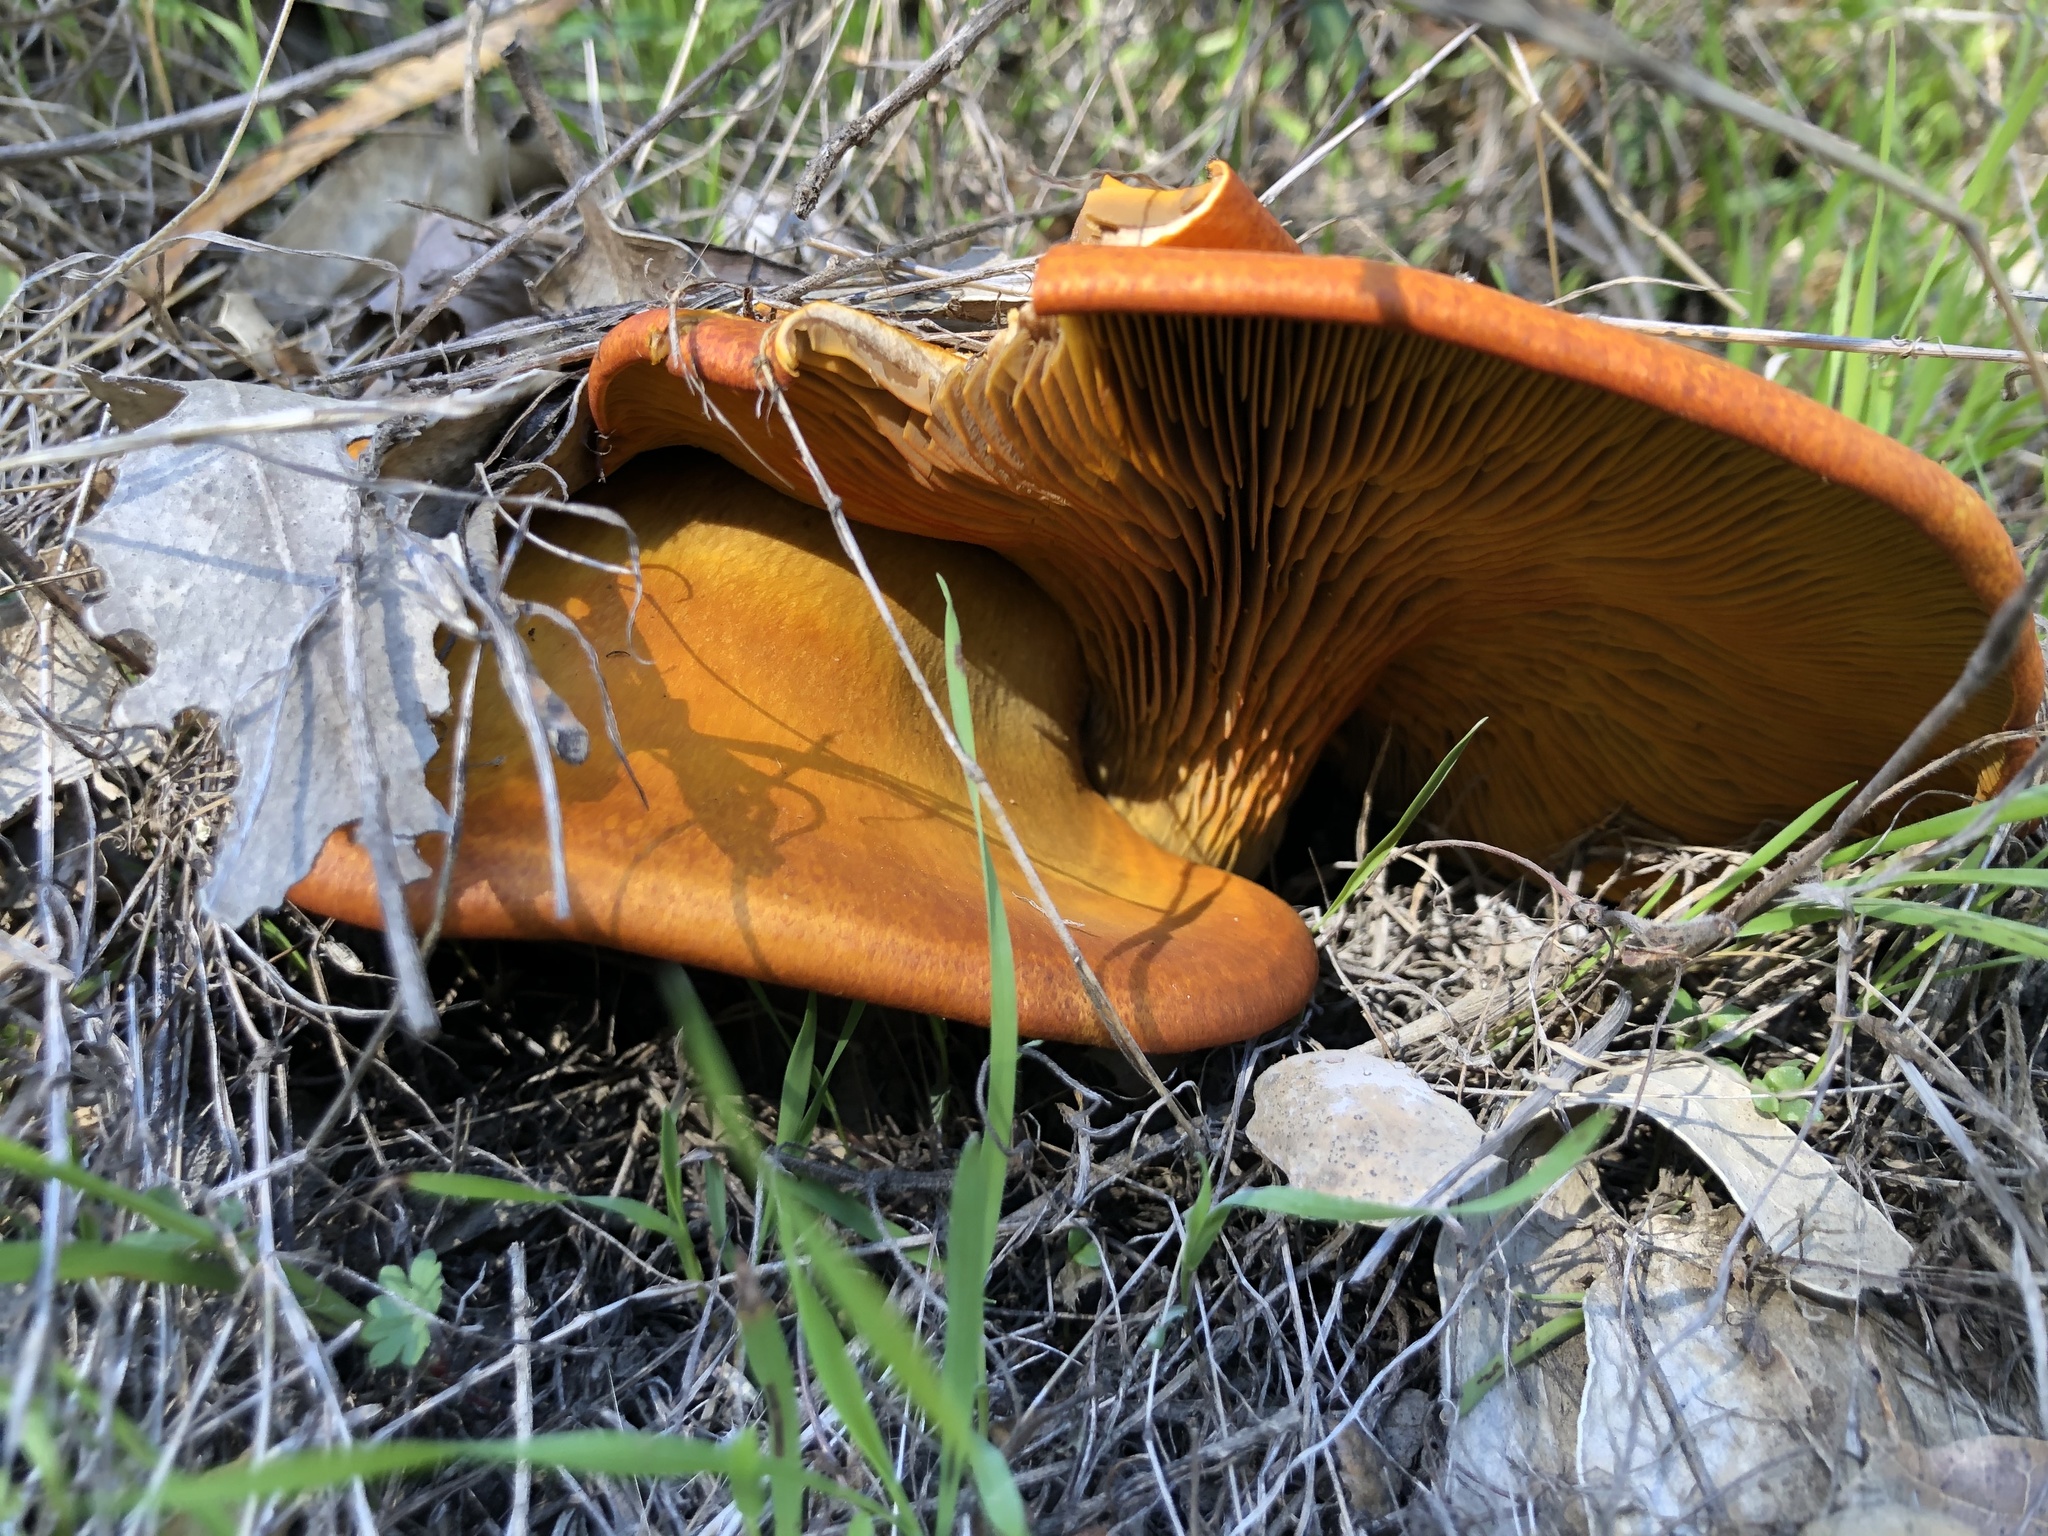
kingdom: Fungi
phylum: Basidiomycota
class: Agaricomycetes
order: Agaricales
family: Omphalotaceae
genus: Omphalotus
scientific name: Omphalotus olivascens
